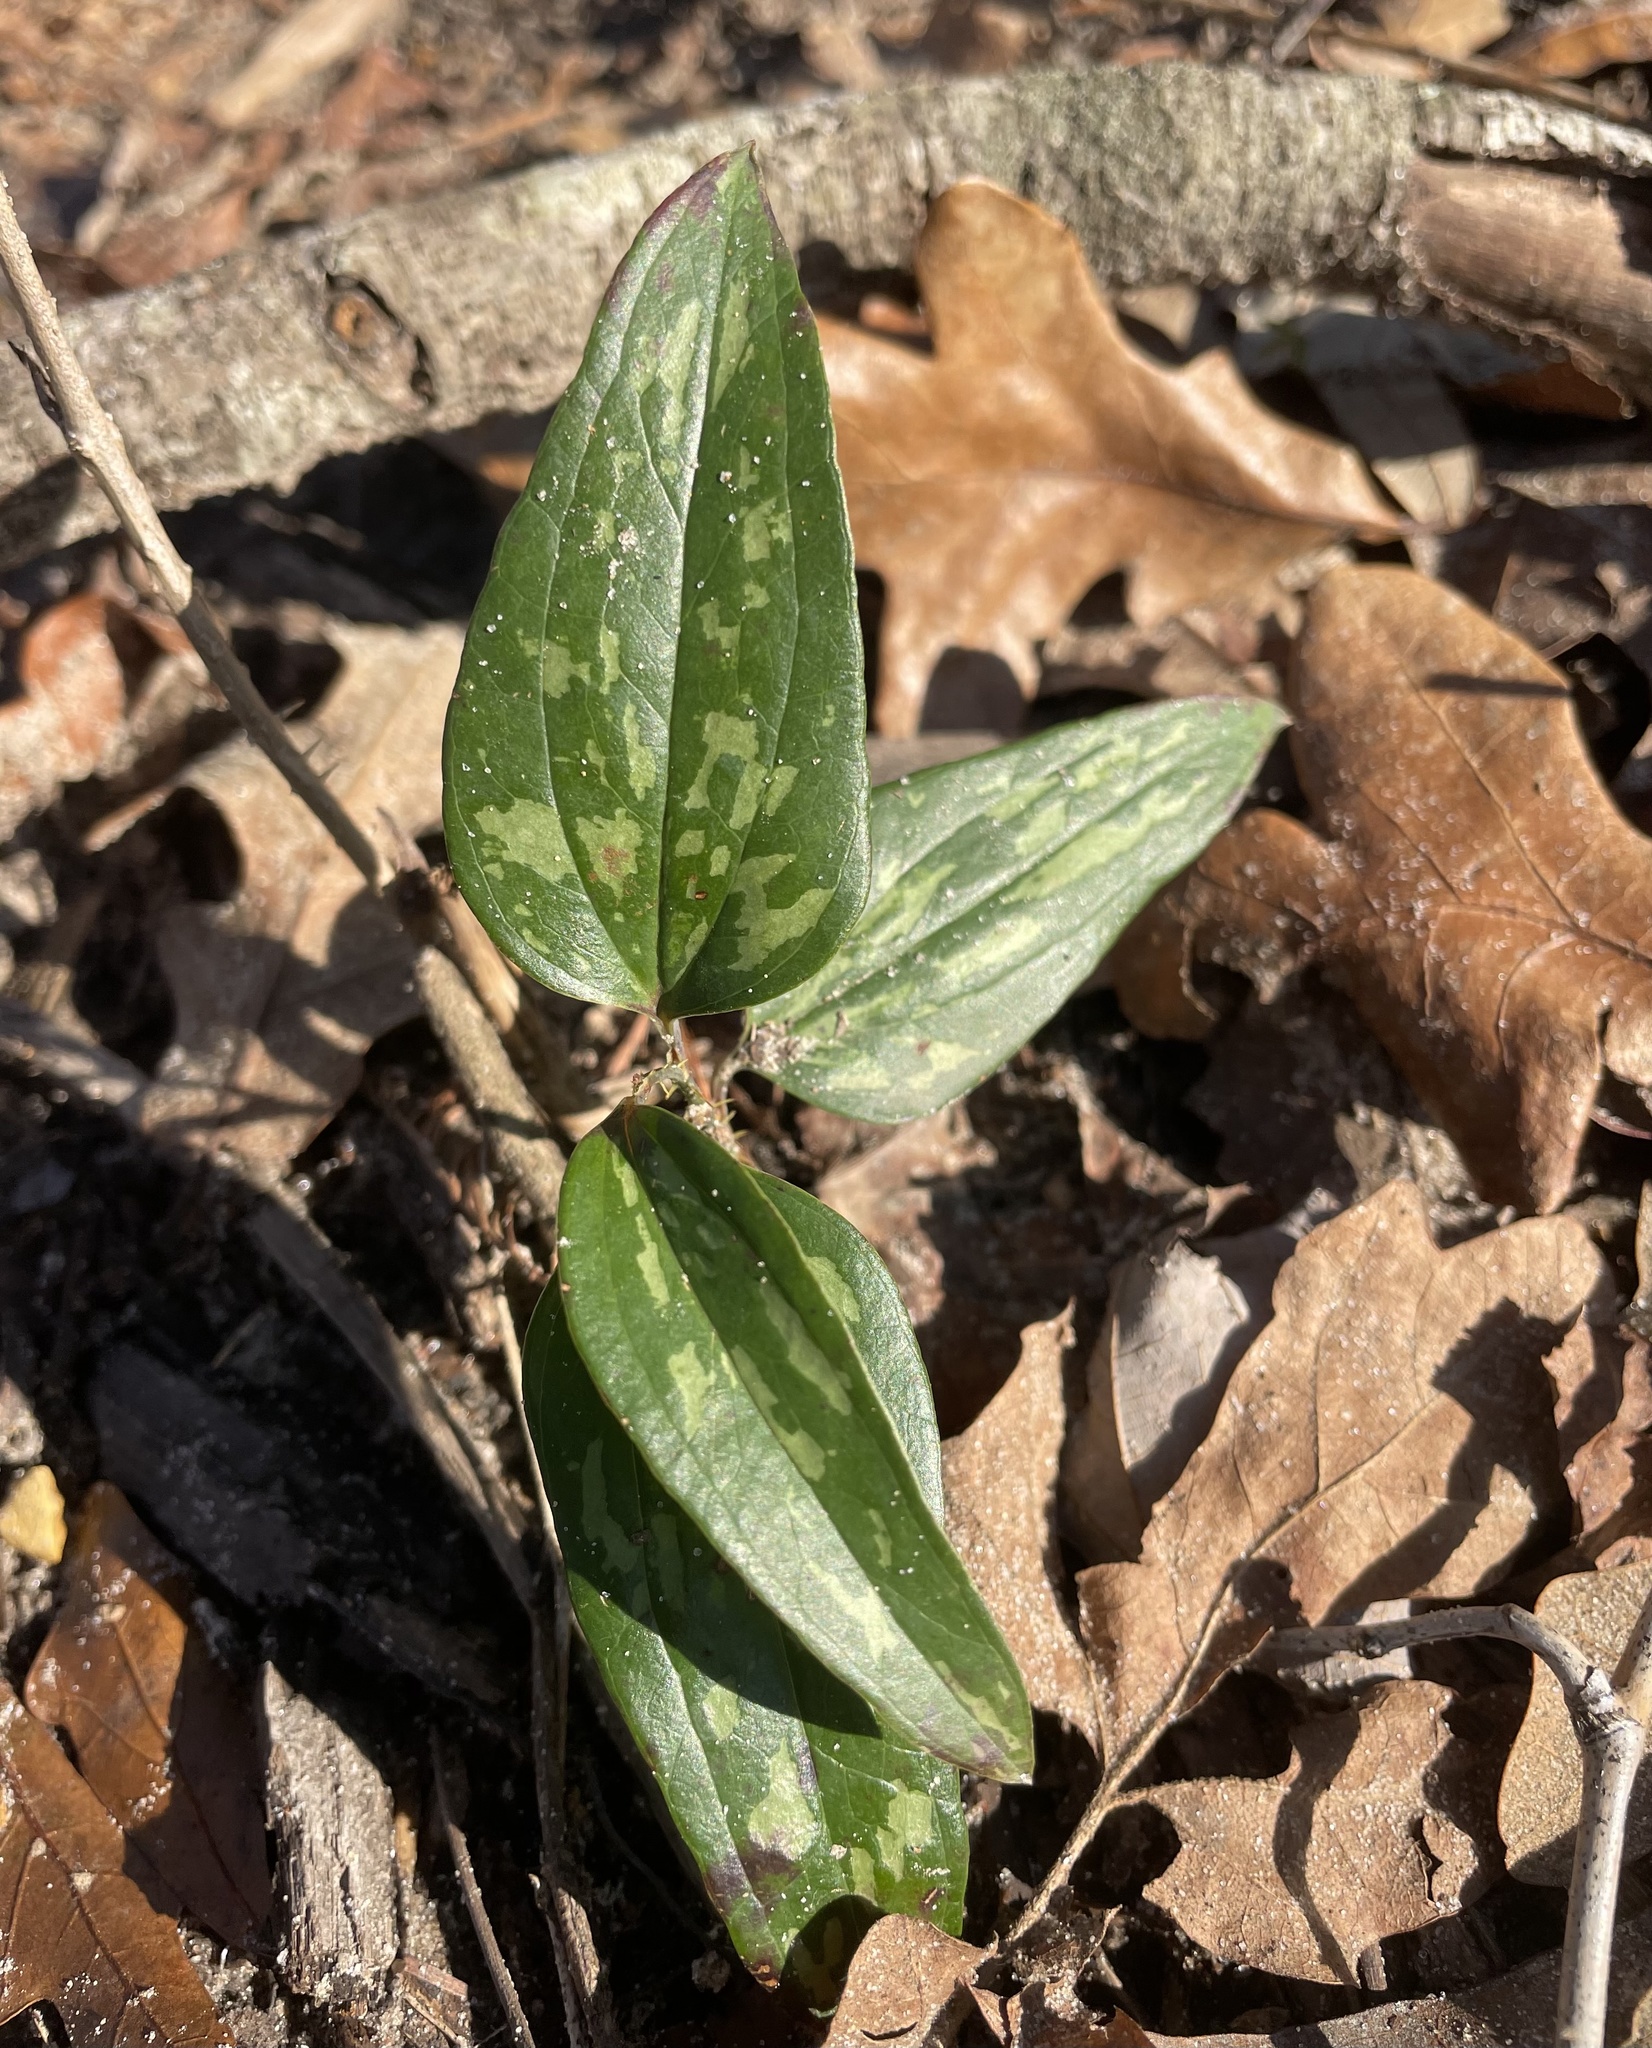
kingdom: Plantae
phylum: Tracheophyta
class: Liliopsida
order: Liliales
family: Smilacaceae
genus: Smilax
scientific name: Smilax bona-nox
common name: Catbrier
